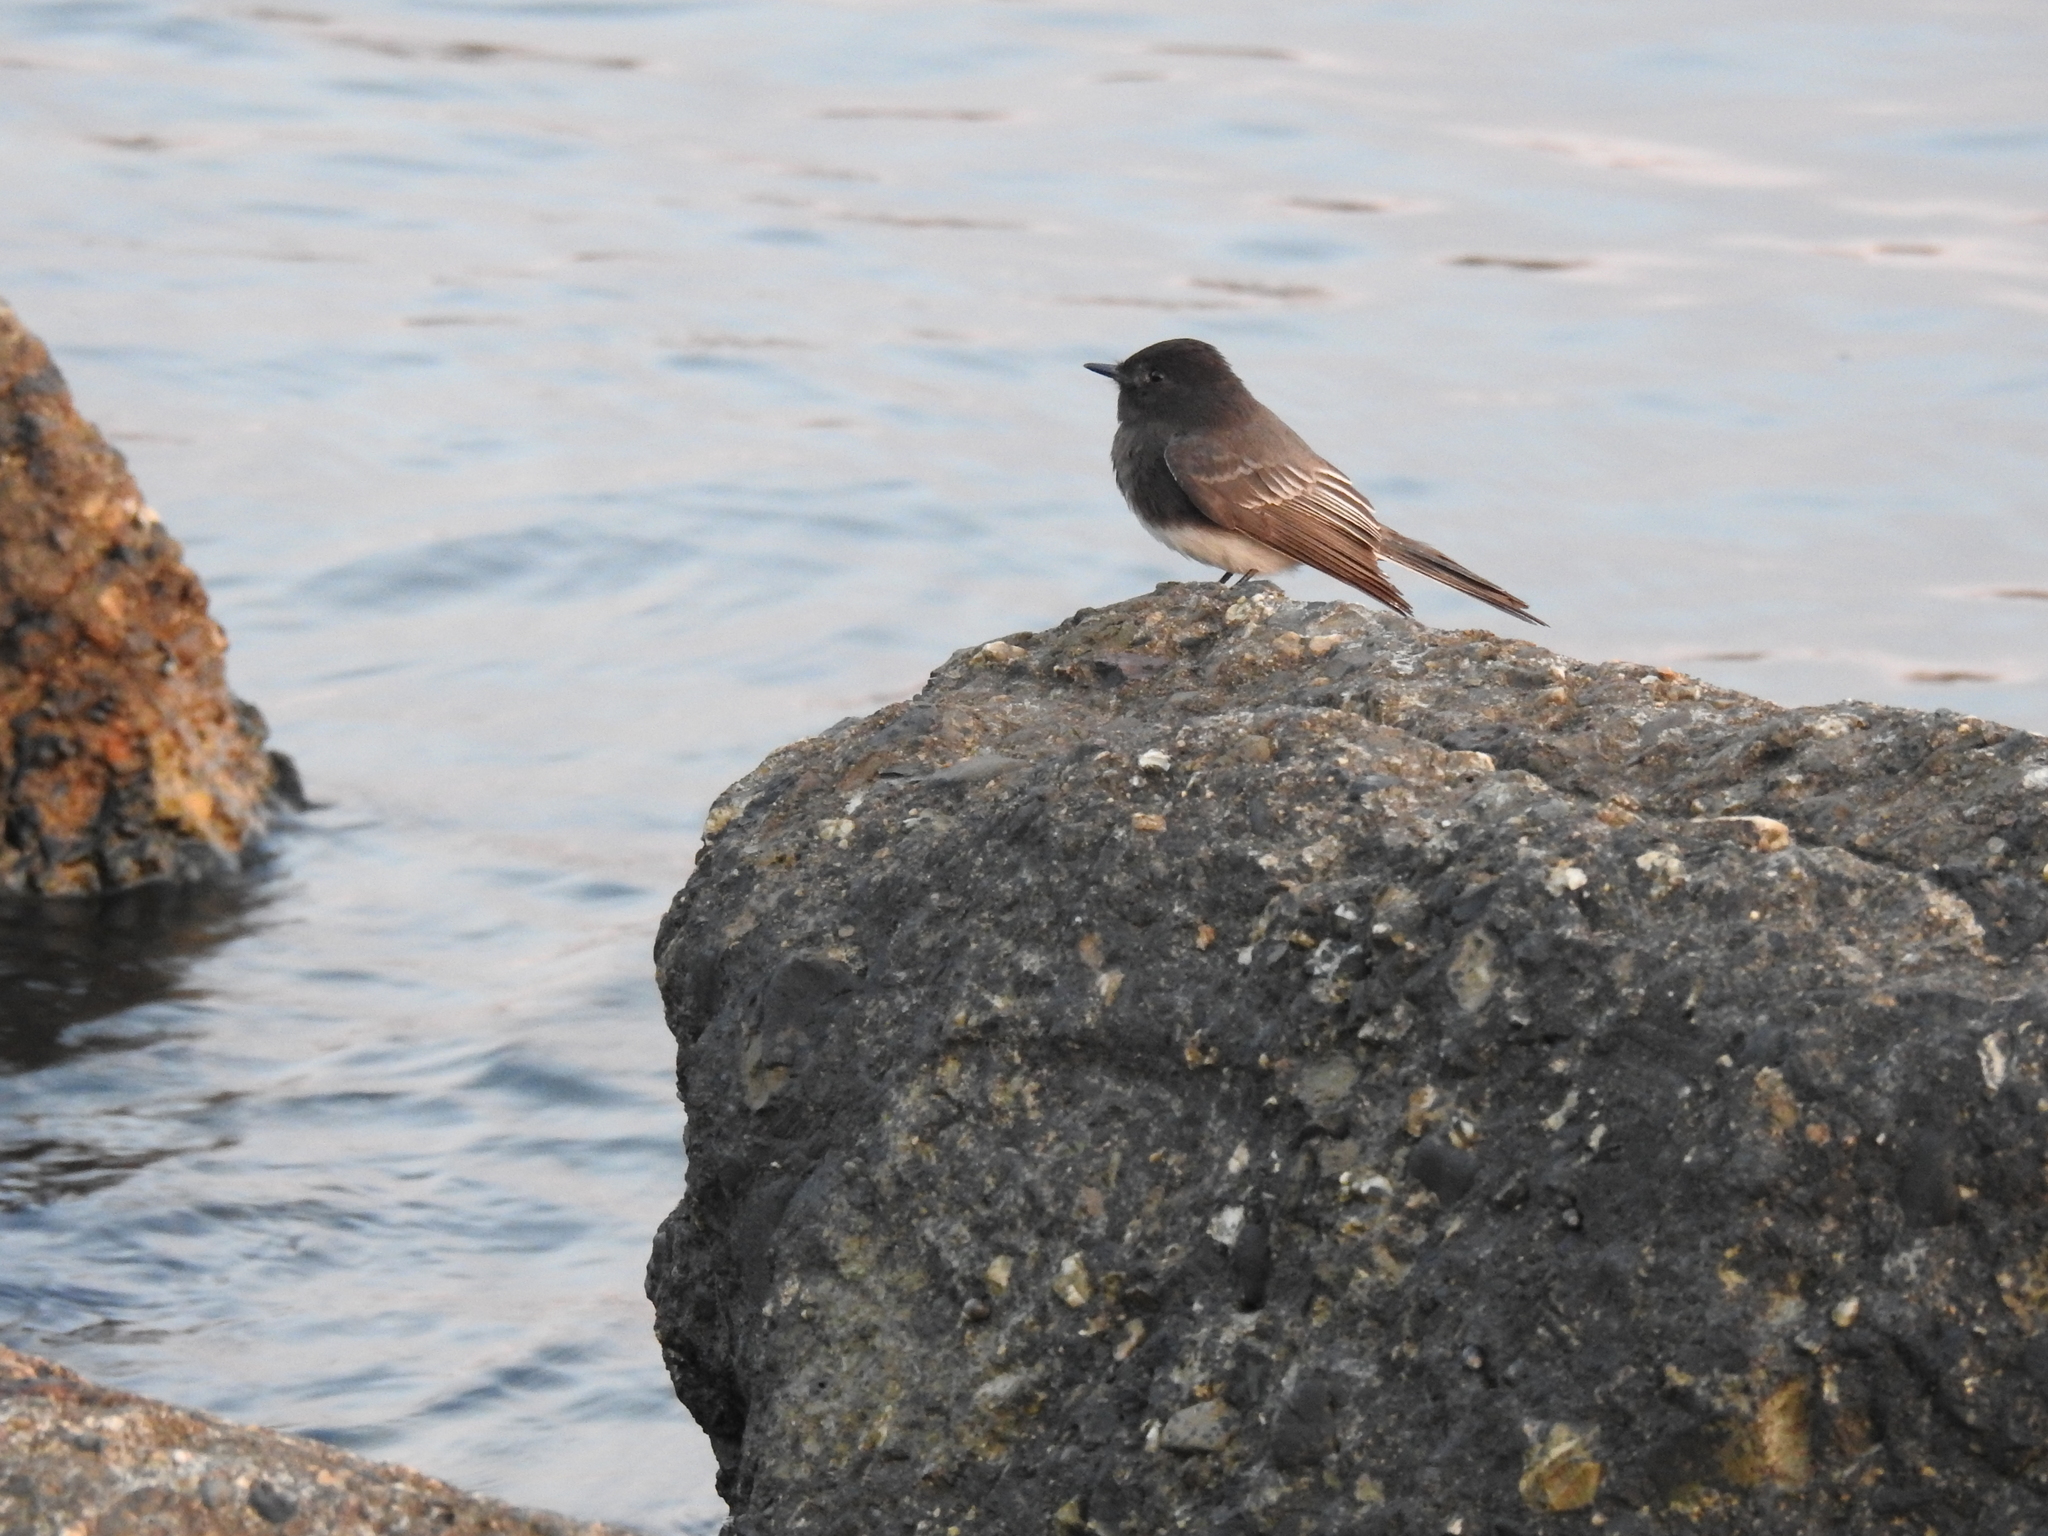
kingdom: Animalia
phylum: Chordata
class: Aves
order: Passeriformes
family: Tyrannidae
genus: Sayornis
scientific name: Sayornis nigricans
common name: Black phoebe
